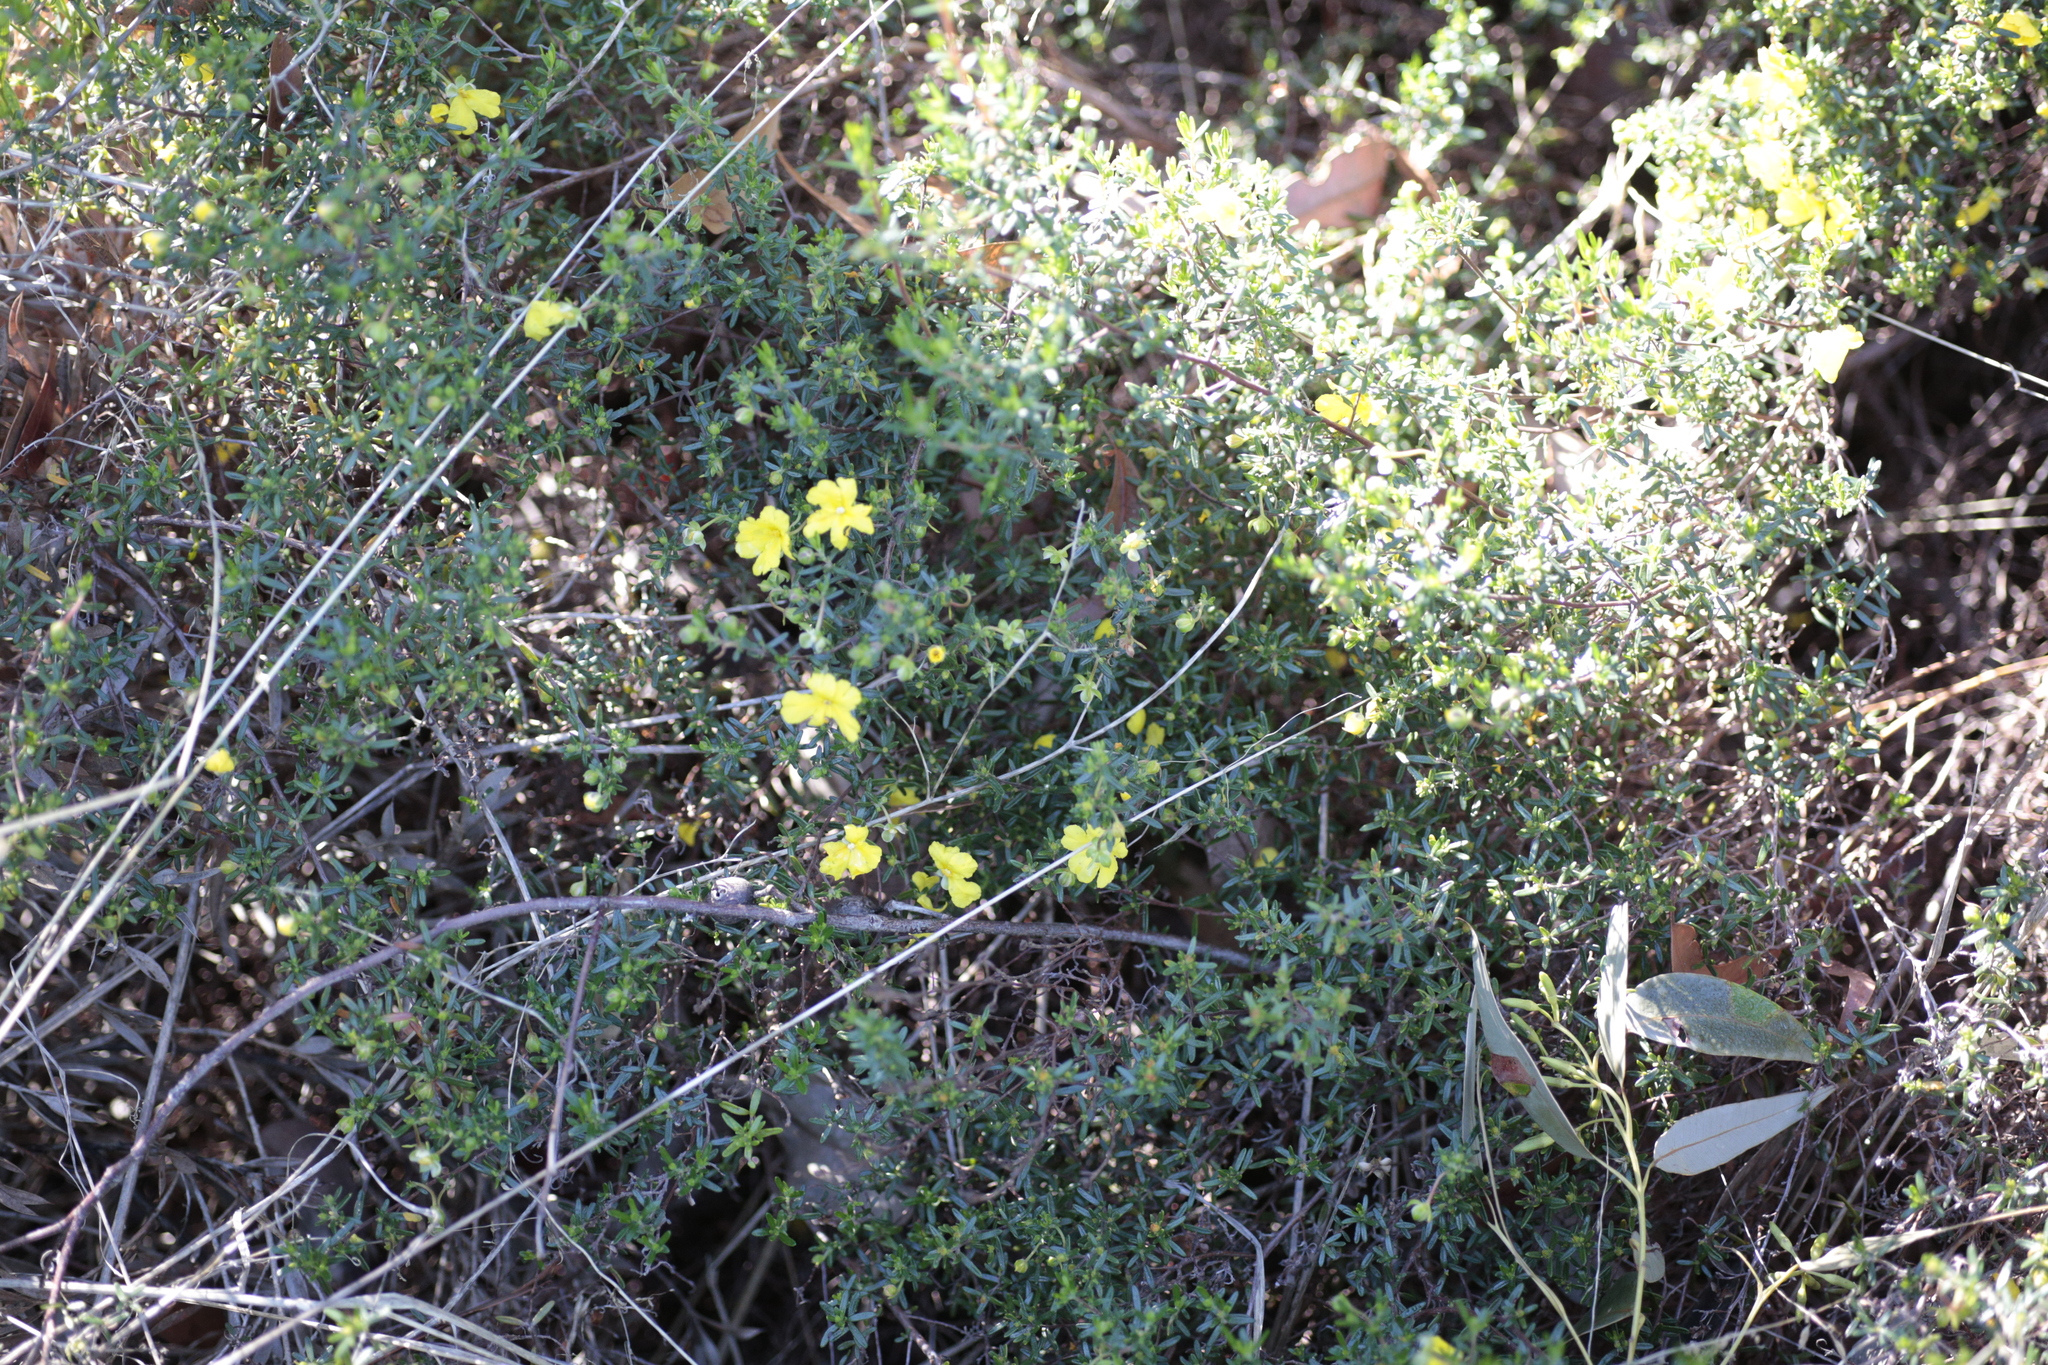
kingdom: Plantae
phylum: Tracheophyta
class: Magnoliopsida
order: Dilleniales
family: Dilleniaceae
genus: Hibbertia
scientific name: Hibbertia hypericoides
